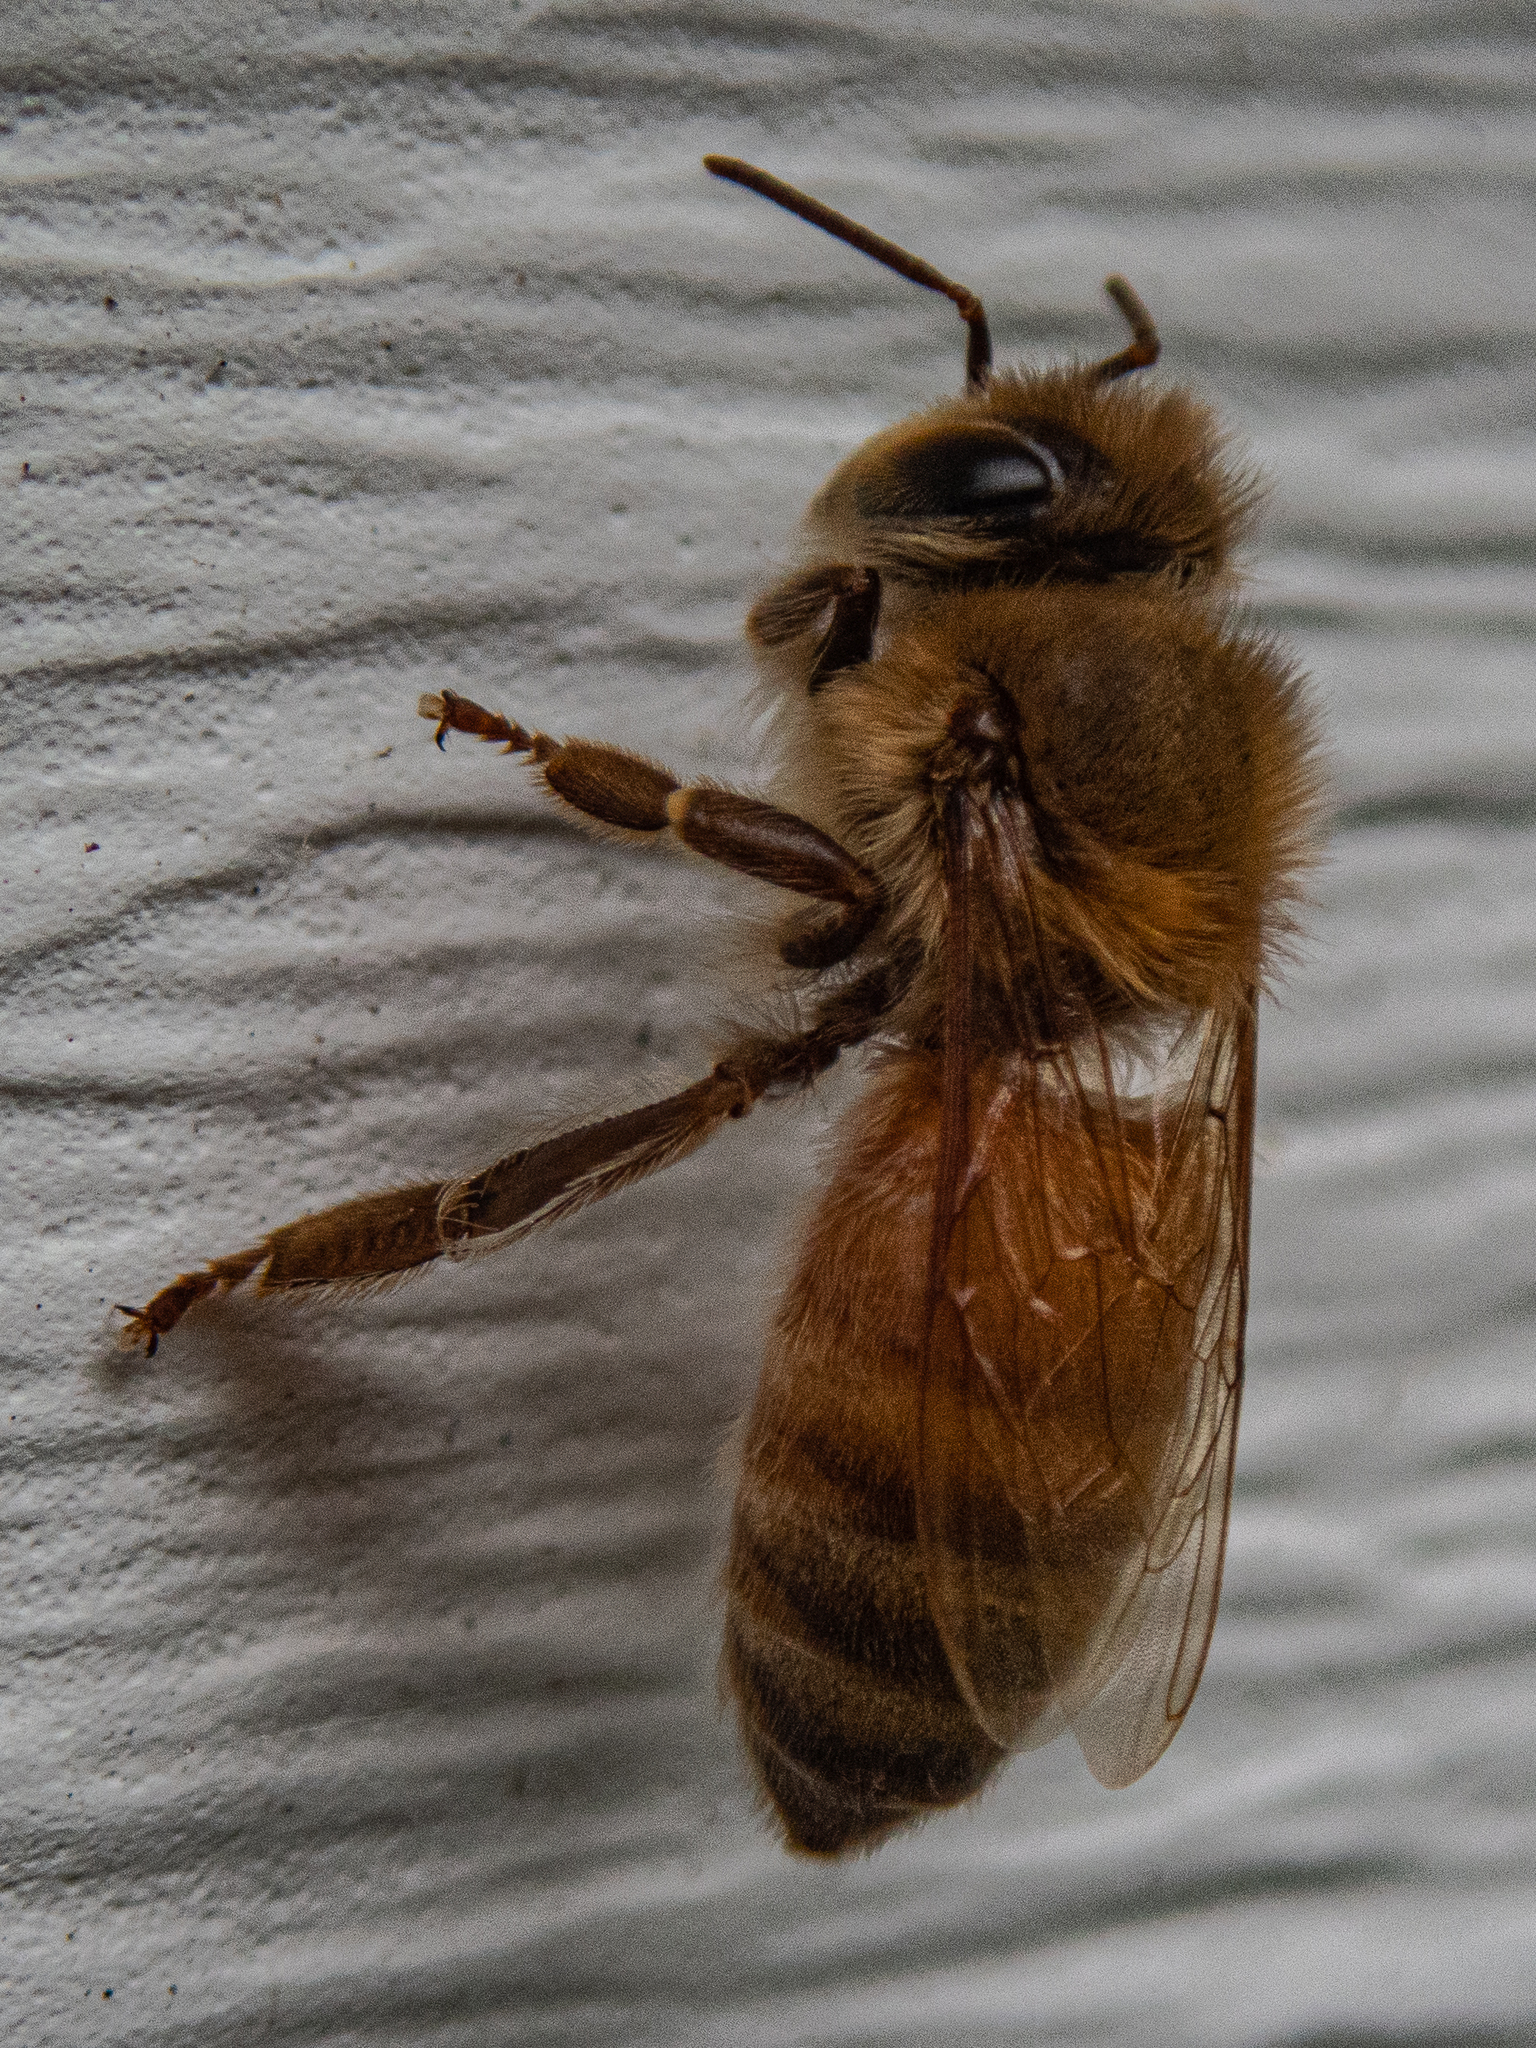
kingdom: Animalia
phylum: Arthropoda
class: Insecta
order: Hymenoptera
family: Apidae
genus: Apis
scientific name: Apis mellifera
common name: Honey bee
